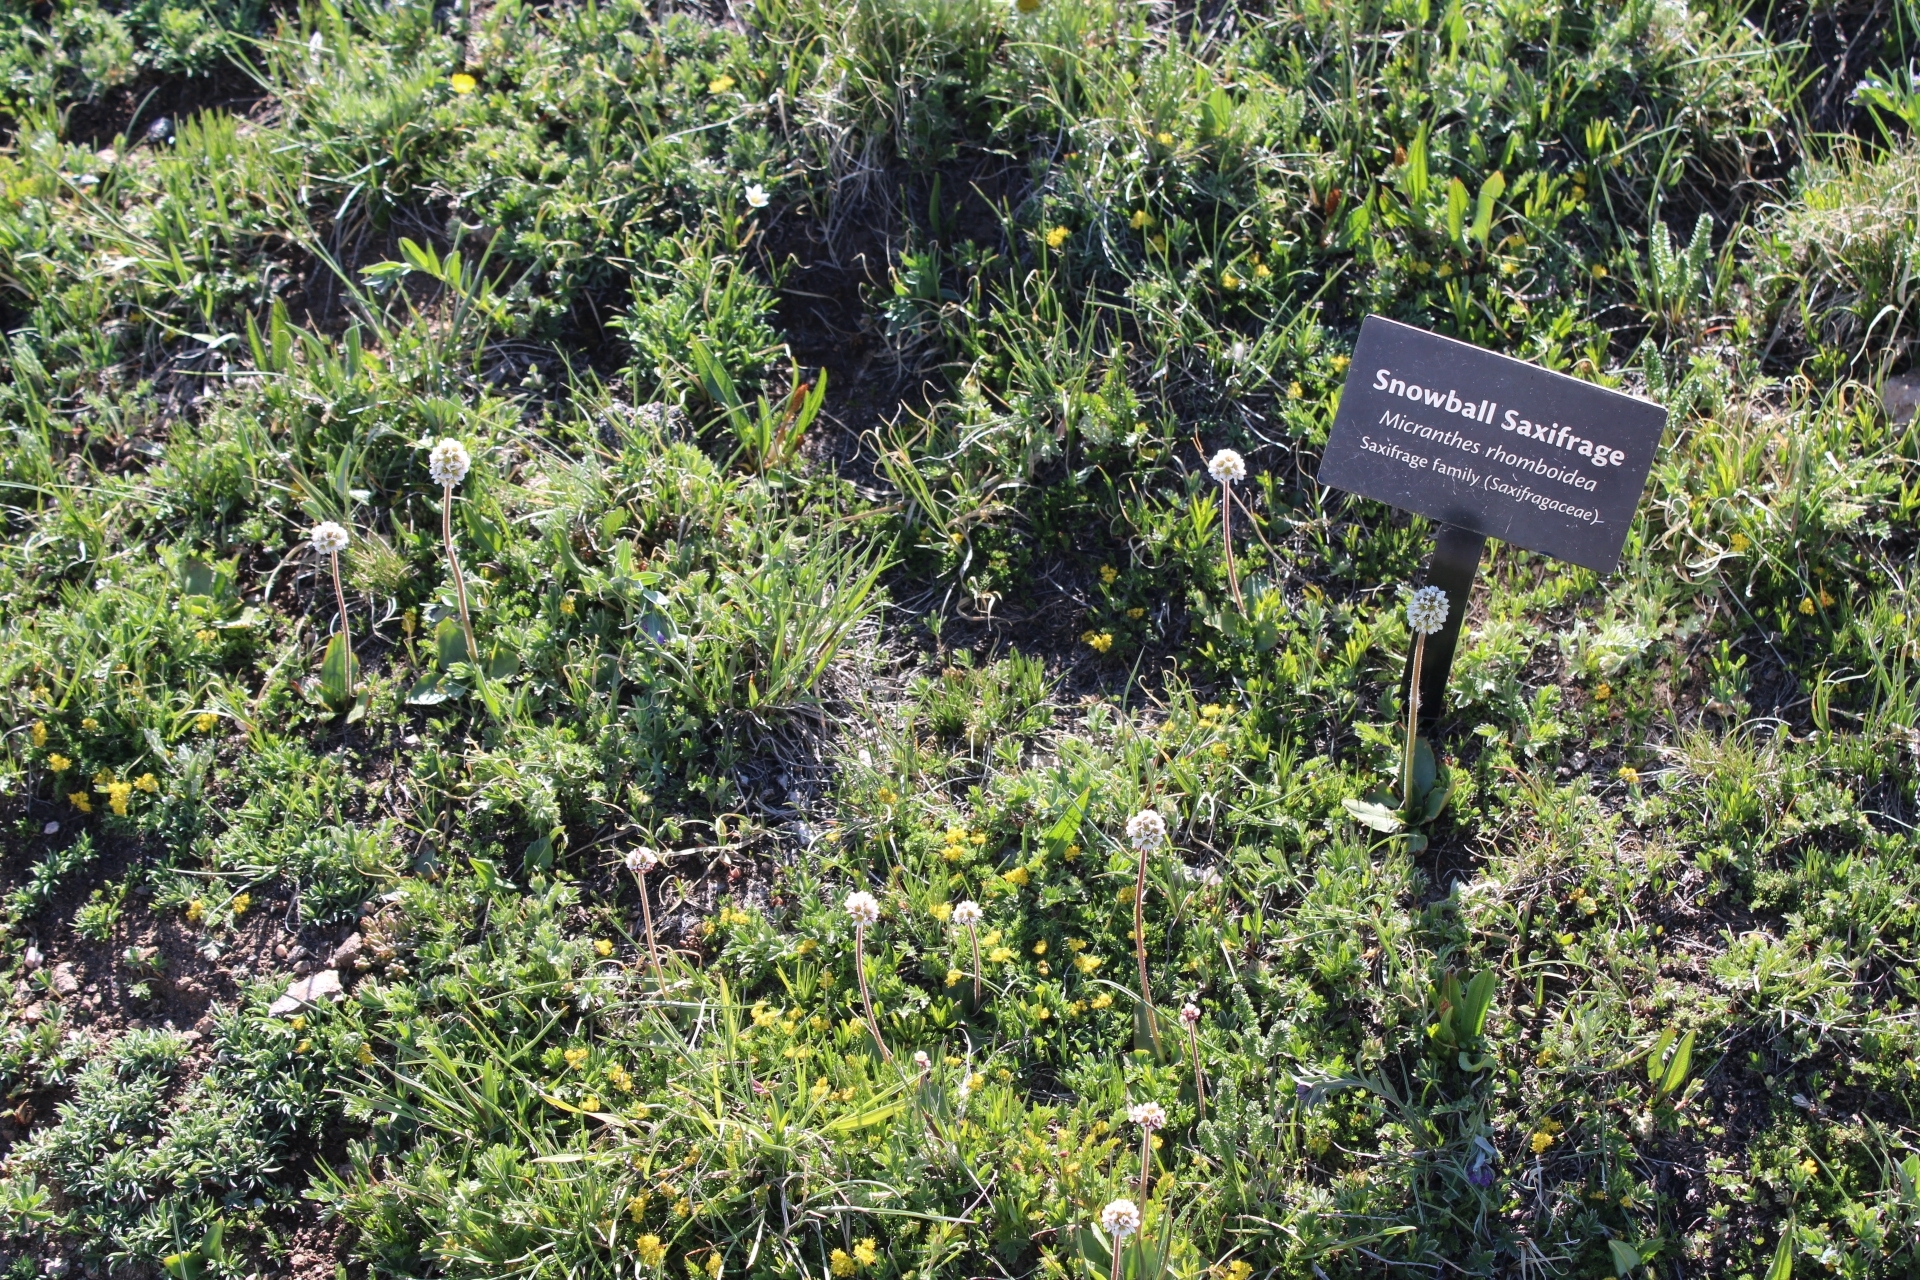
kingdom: Plantae
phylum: Tracheophyta
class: Magnoliopsida
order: Saxifragales
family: Saxifragaceae
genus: Micranthes
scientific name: Micranthes rhomboidea
